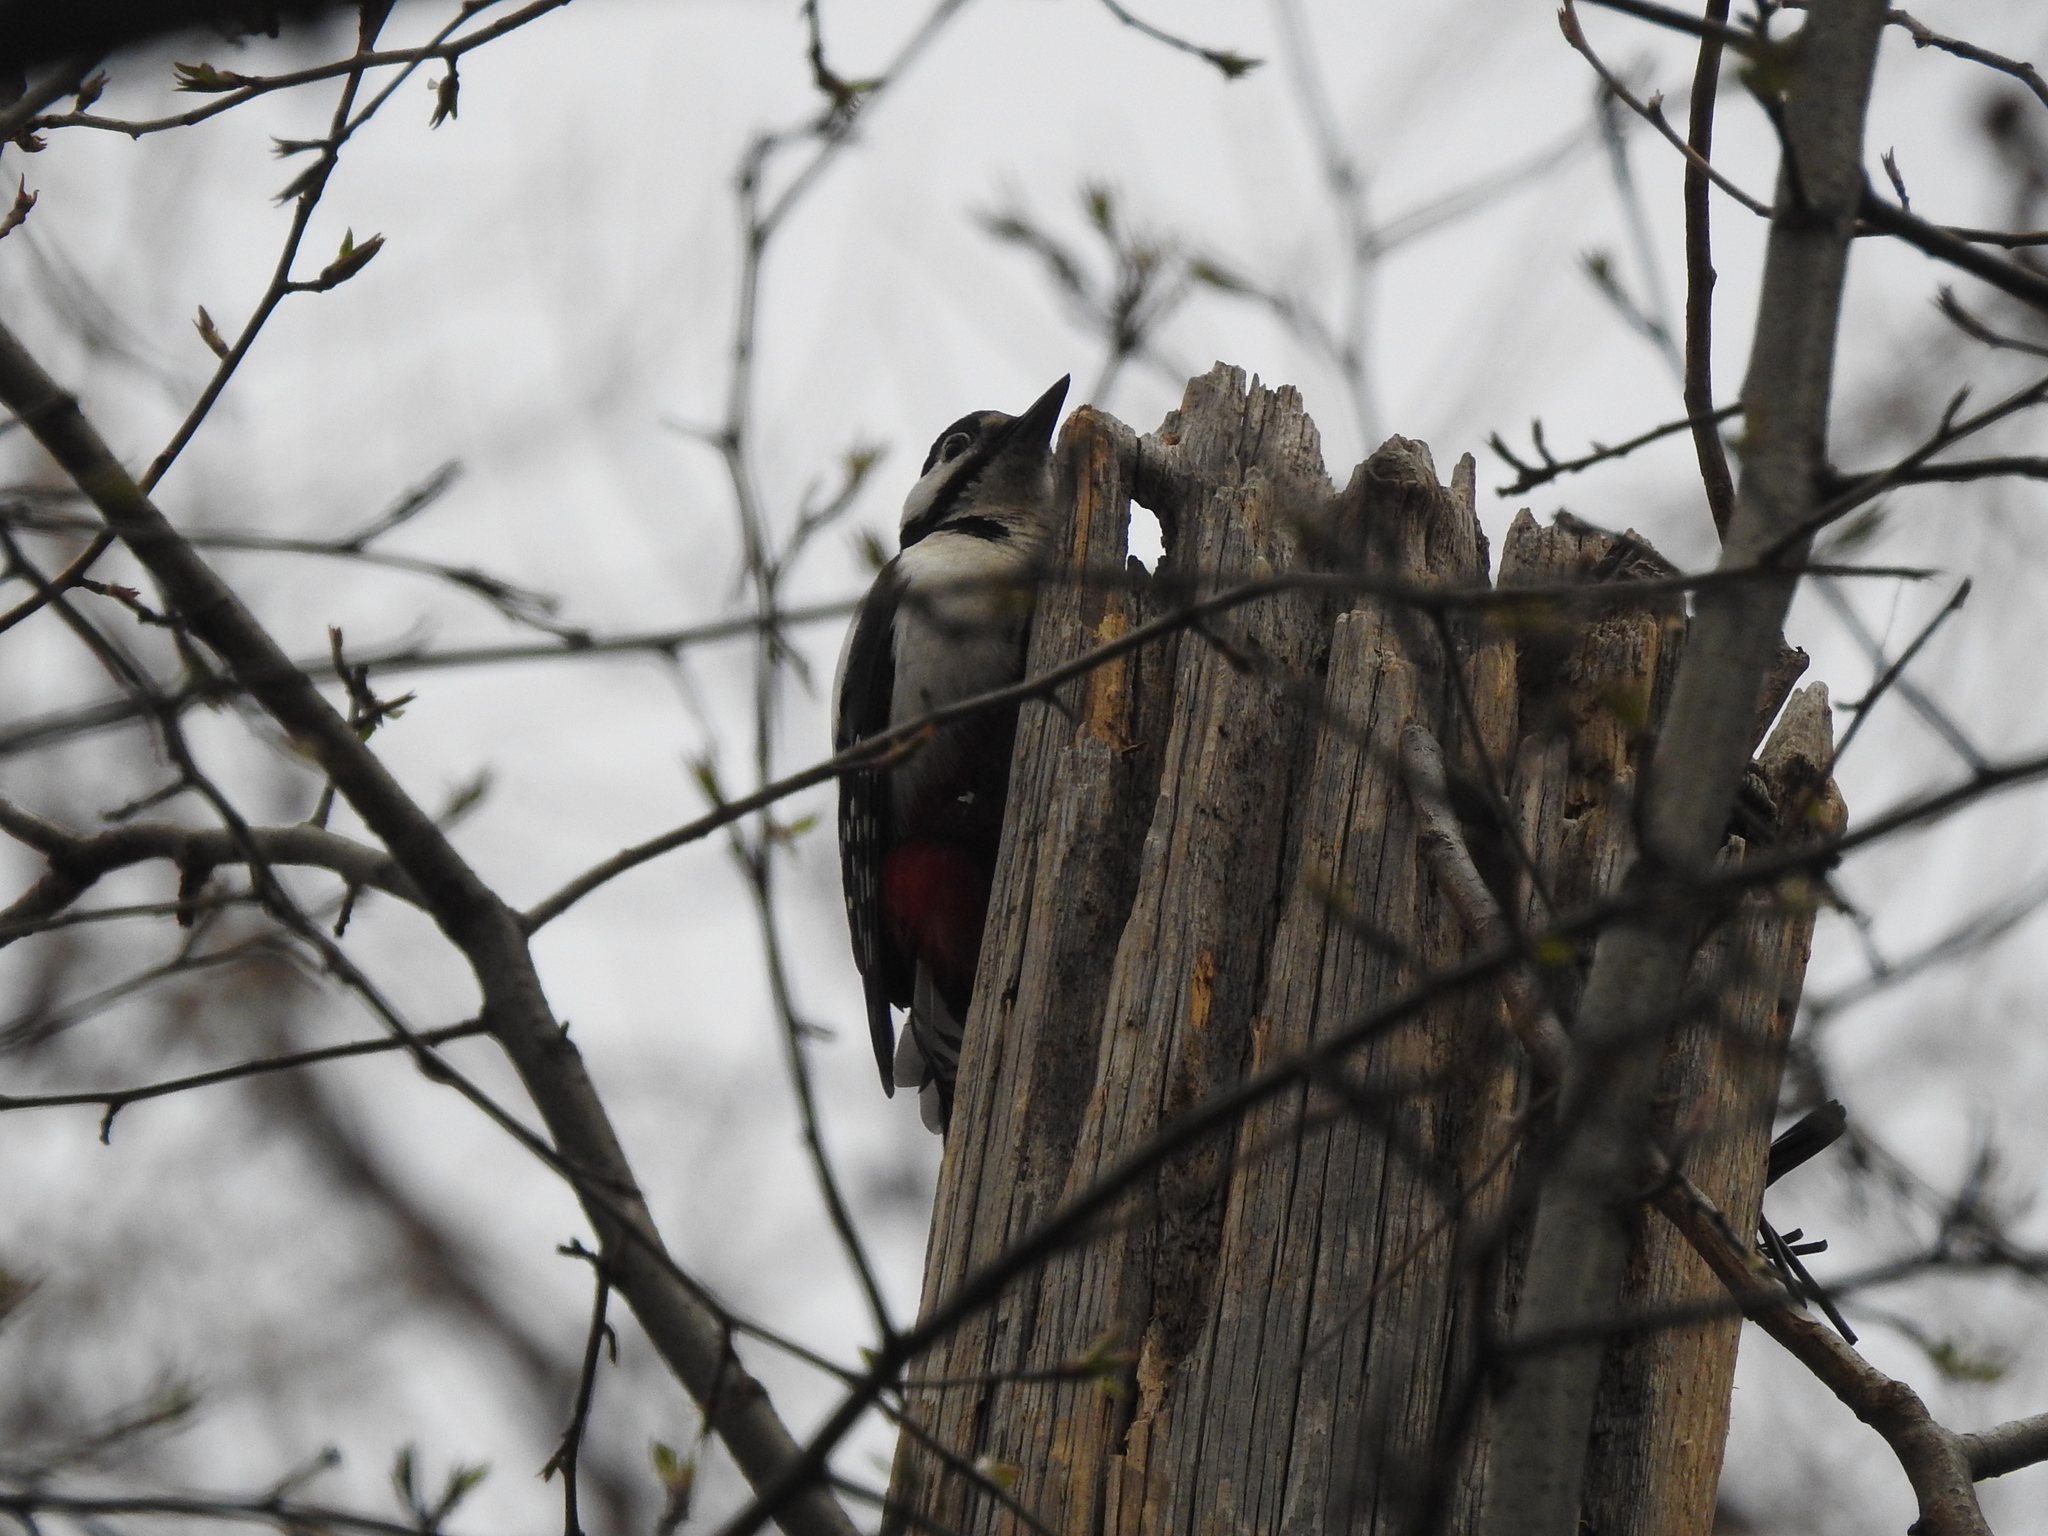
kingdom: Animalia
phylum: Chordata
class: Aves
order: Piciformes
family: Picidae
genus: Dendrocopos
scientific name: Dendrocopos major
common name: Great spotted woodpecker
